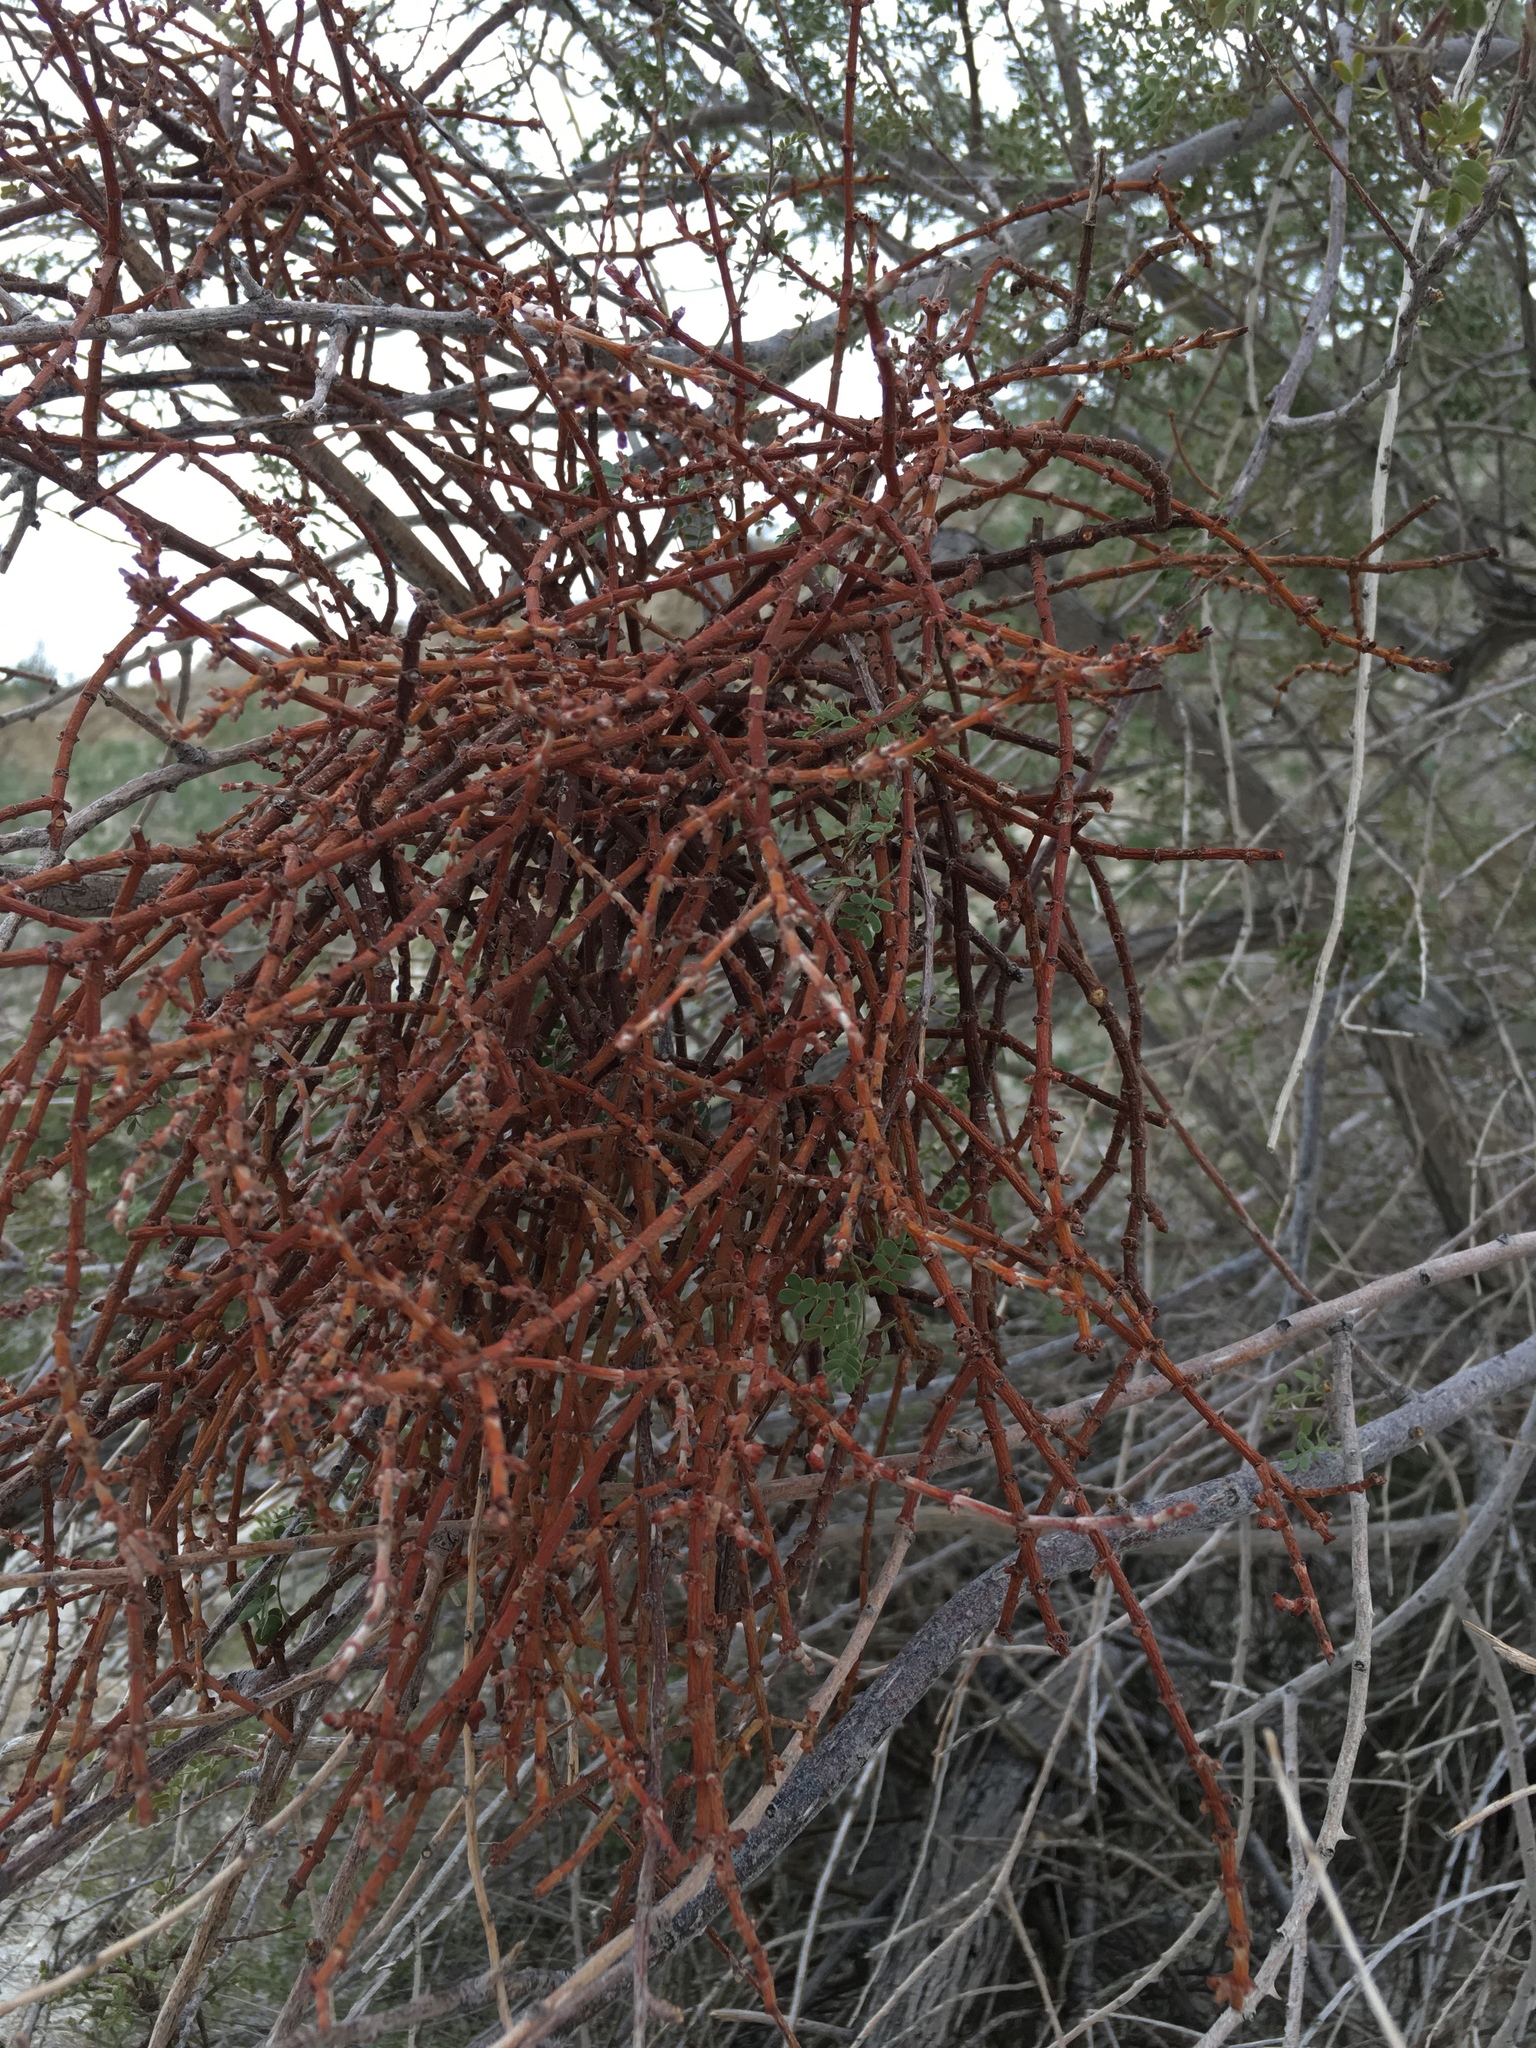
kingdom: Plantae
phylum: Tracheophyta
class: Magnoliopsida
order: Santalales
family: Viscaceae
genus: Phoradendron
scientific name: Phoradendron californicum
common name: Acacia mistletoe
